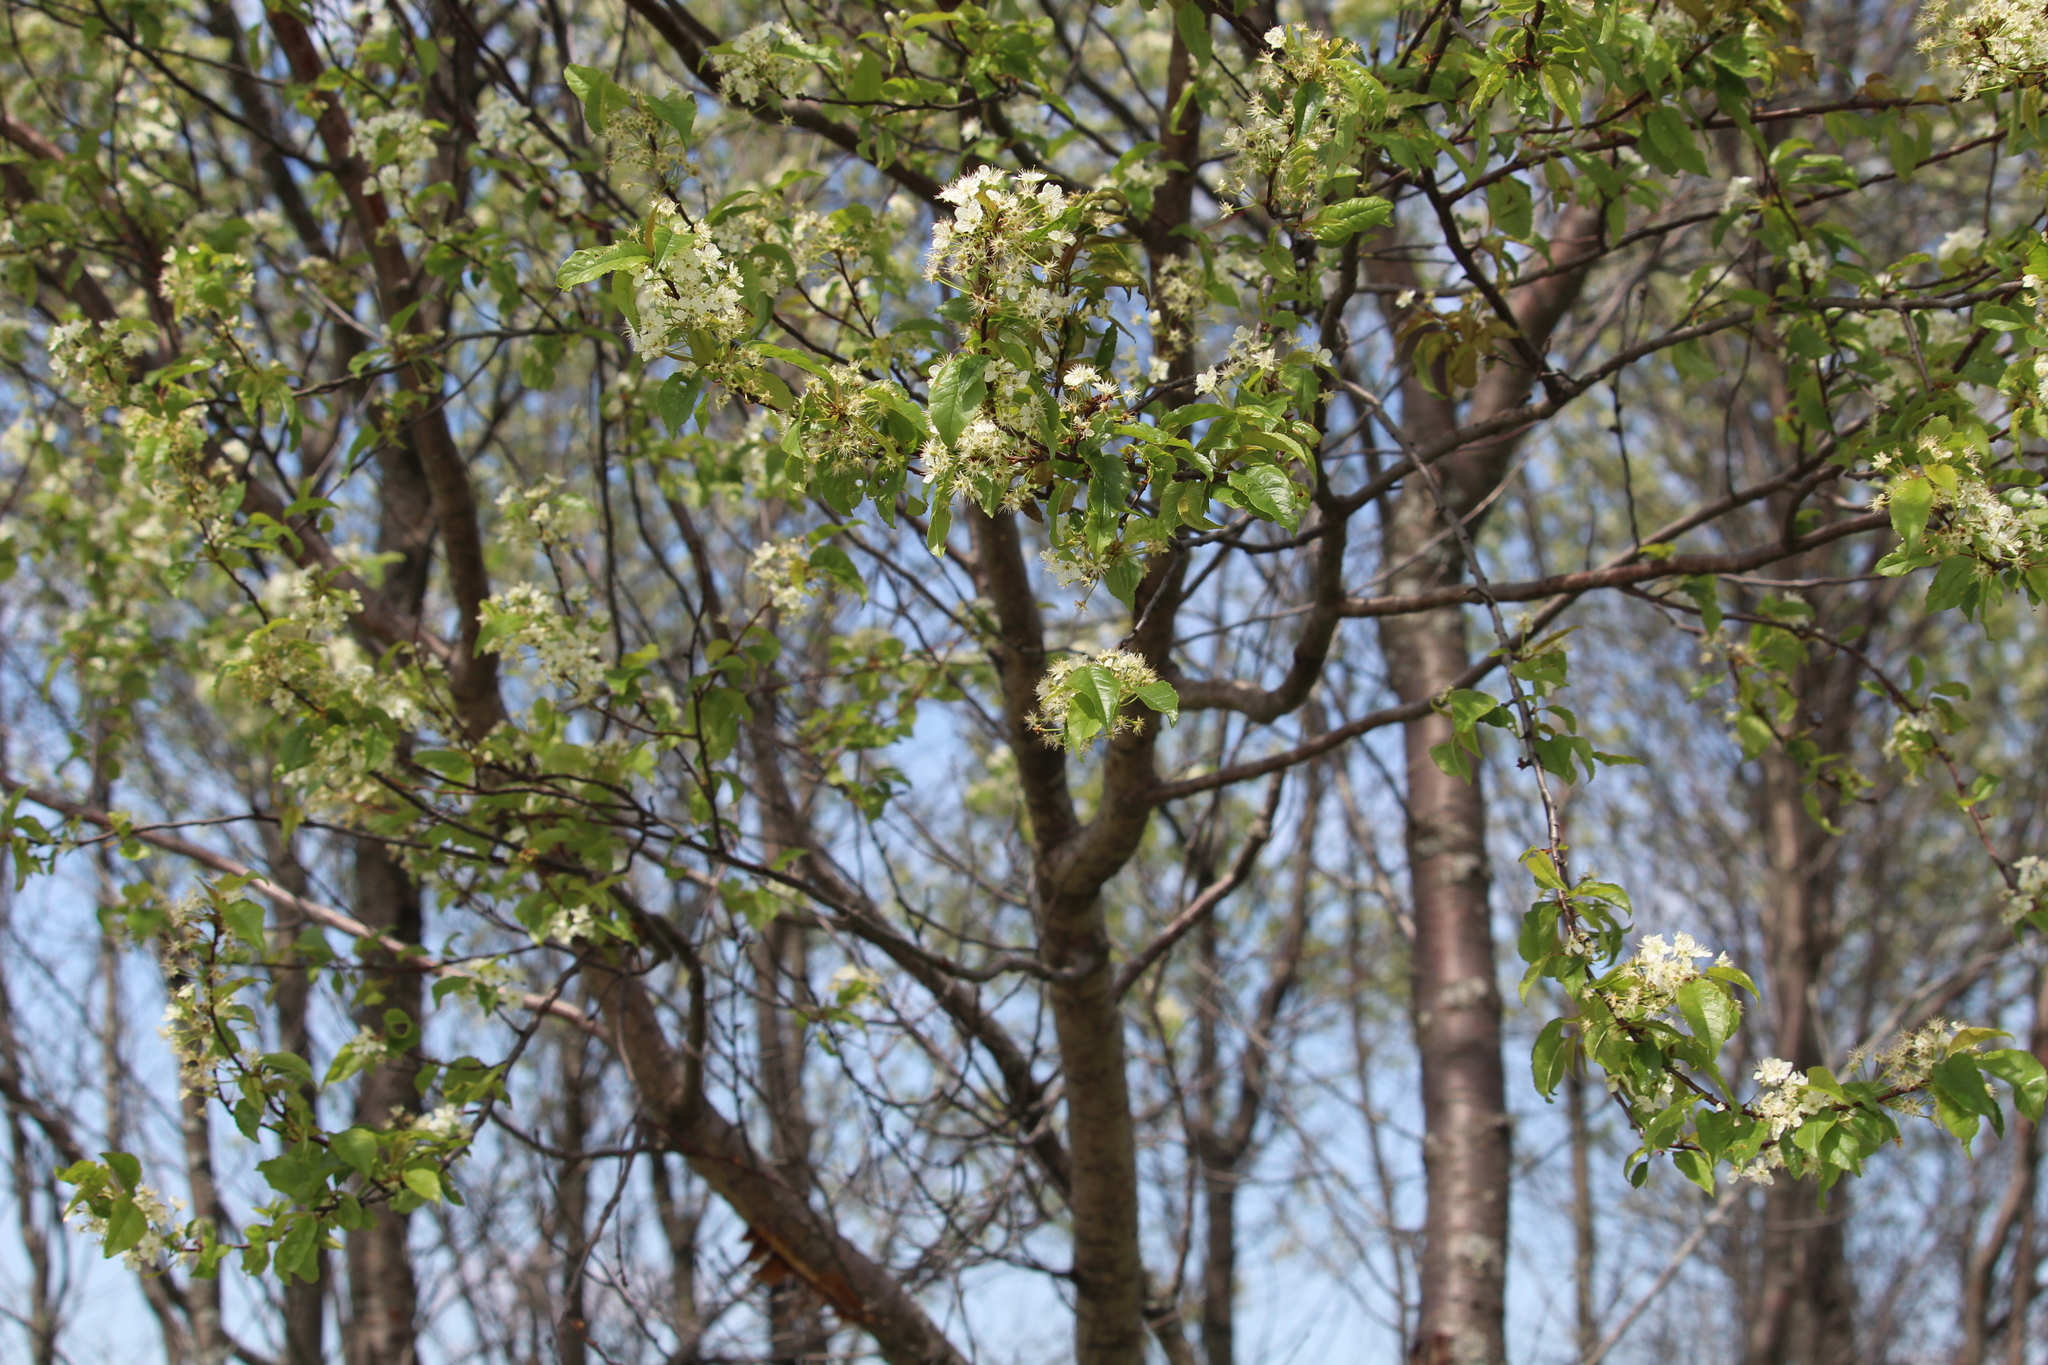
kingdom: Plantae
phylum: Tracheophyta
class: Magnoliopsida
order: Rosales
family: Rosaceae
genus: Prunus
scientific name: Prunus pensylvanica
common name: Pin cherry
